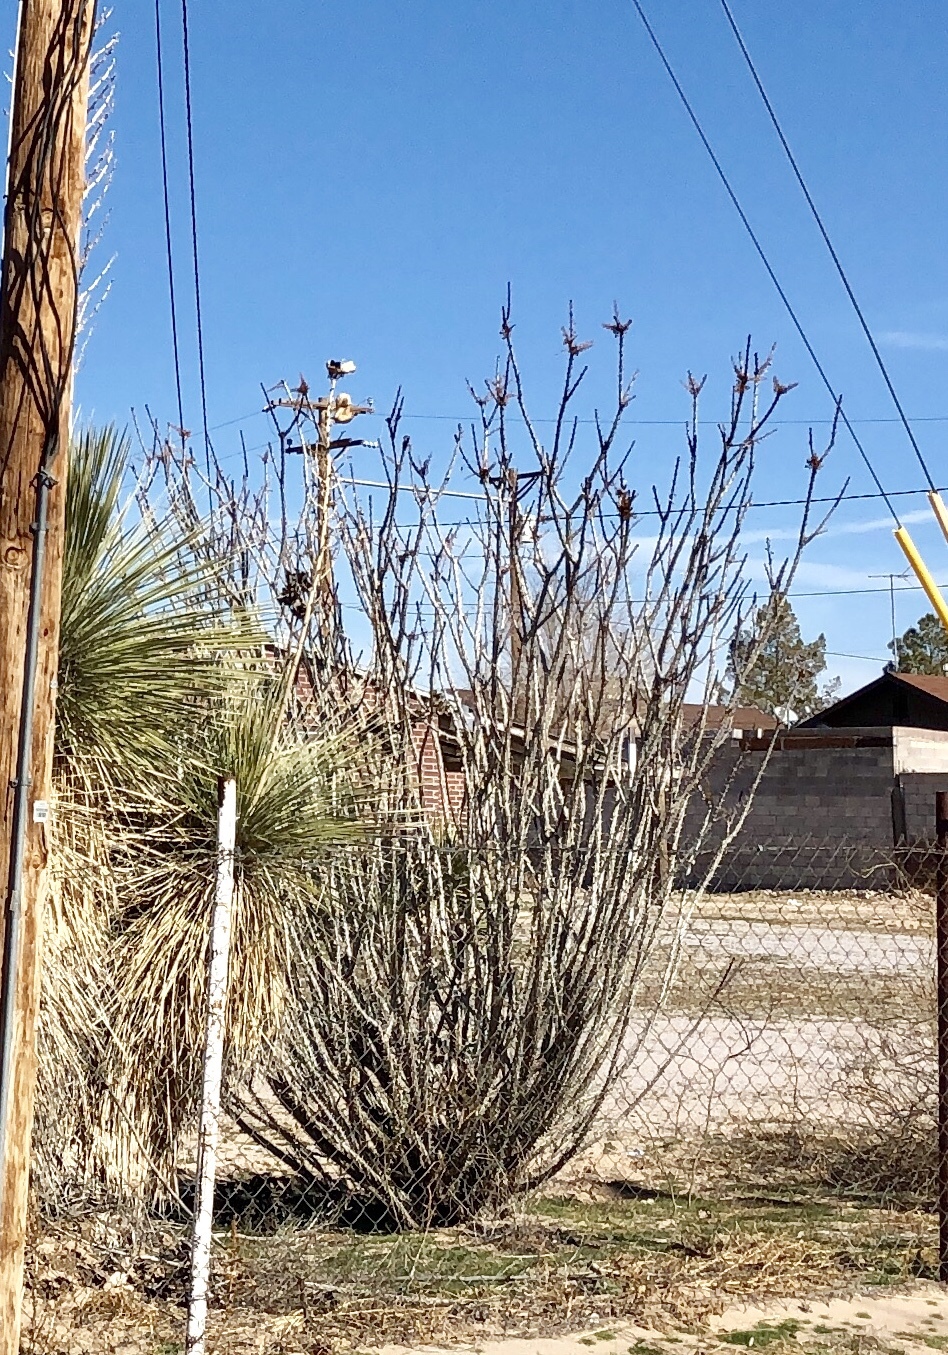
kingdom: Plantae
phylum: Tracheophyta
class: Magnoliopsida
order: Ericales
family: Fouquieriaceae
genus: Fouquieria
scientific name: Fouquieria splendens
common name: Vine-cactus
